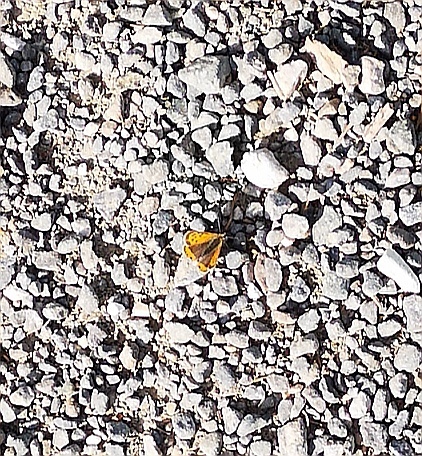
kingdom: Animalia
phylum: Arthropoda
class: Insecta
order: Lepidoptera
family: Lycaenidae
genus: Lycaena
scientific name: Lycaena phlaeas
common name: Small copper
